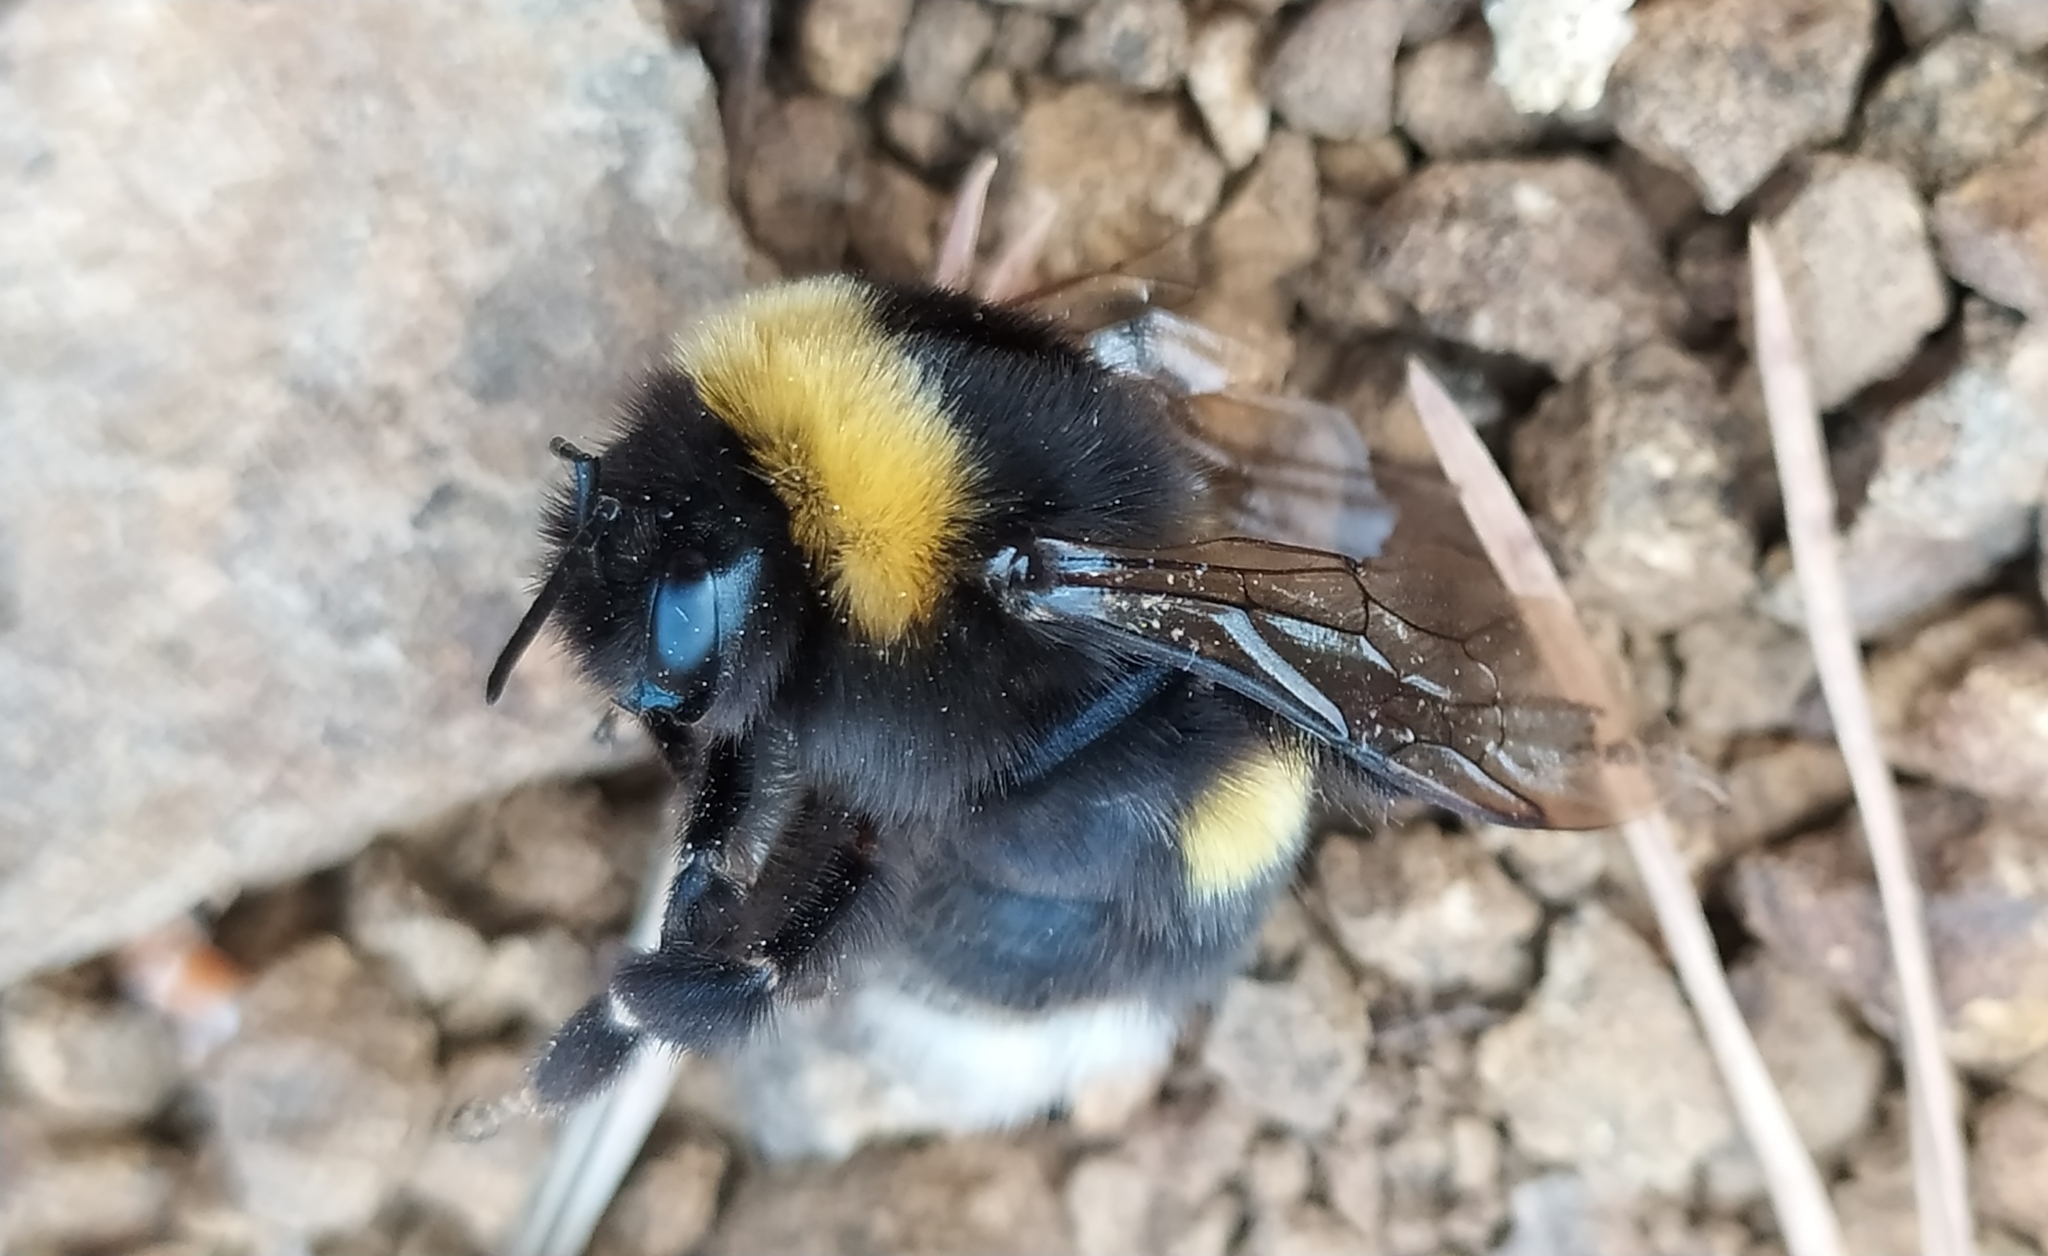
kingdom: Animalia
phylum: Arthropoda
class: Insecta
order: Hymenoptera
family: Apidae
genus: Bombus
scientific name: Bombus
